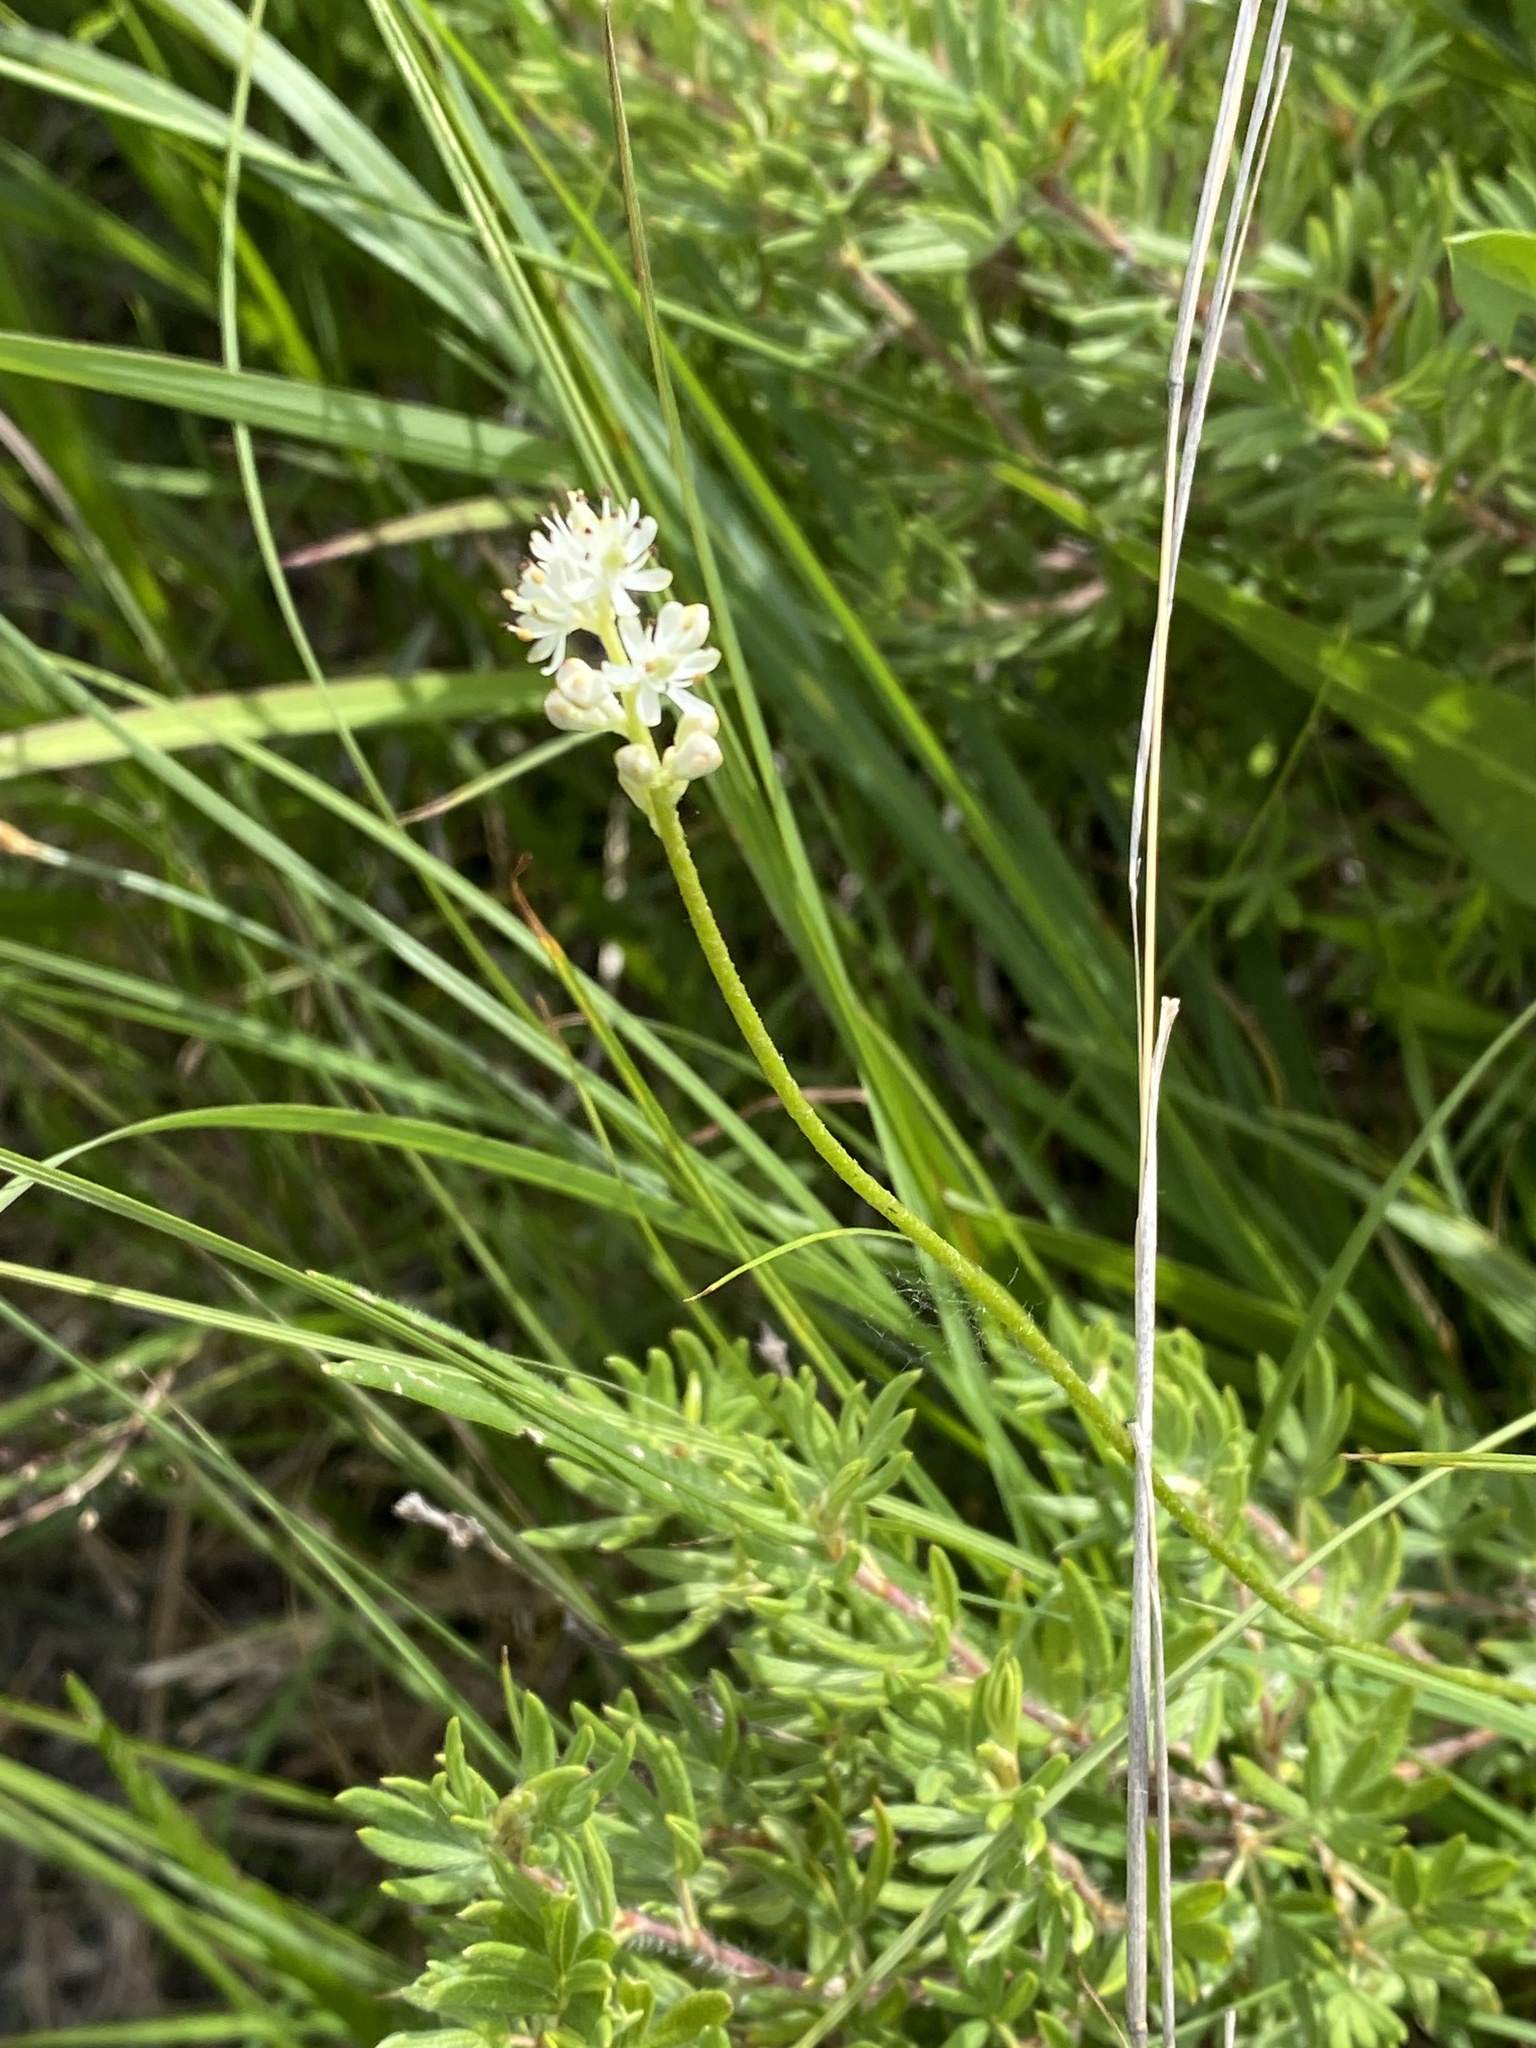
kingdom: Plantae
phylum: Tracheophyta
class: Liliopsida
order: Alismatales
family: Tofieldiaceae
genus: Triantha
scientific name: Triantha glutinosa
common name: Glutinous tofieldia
